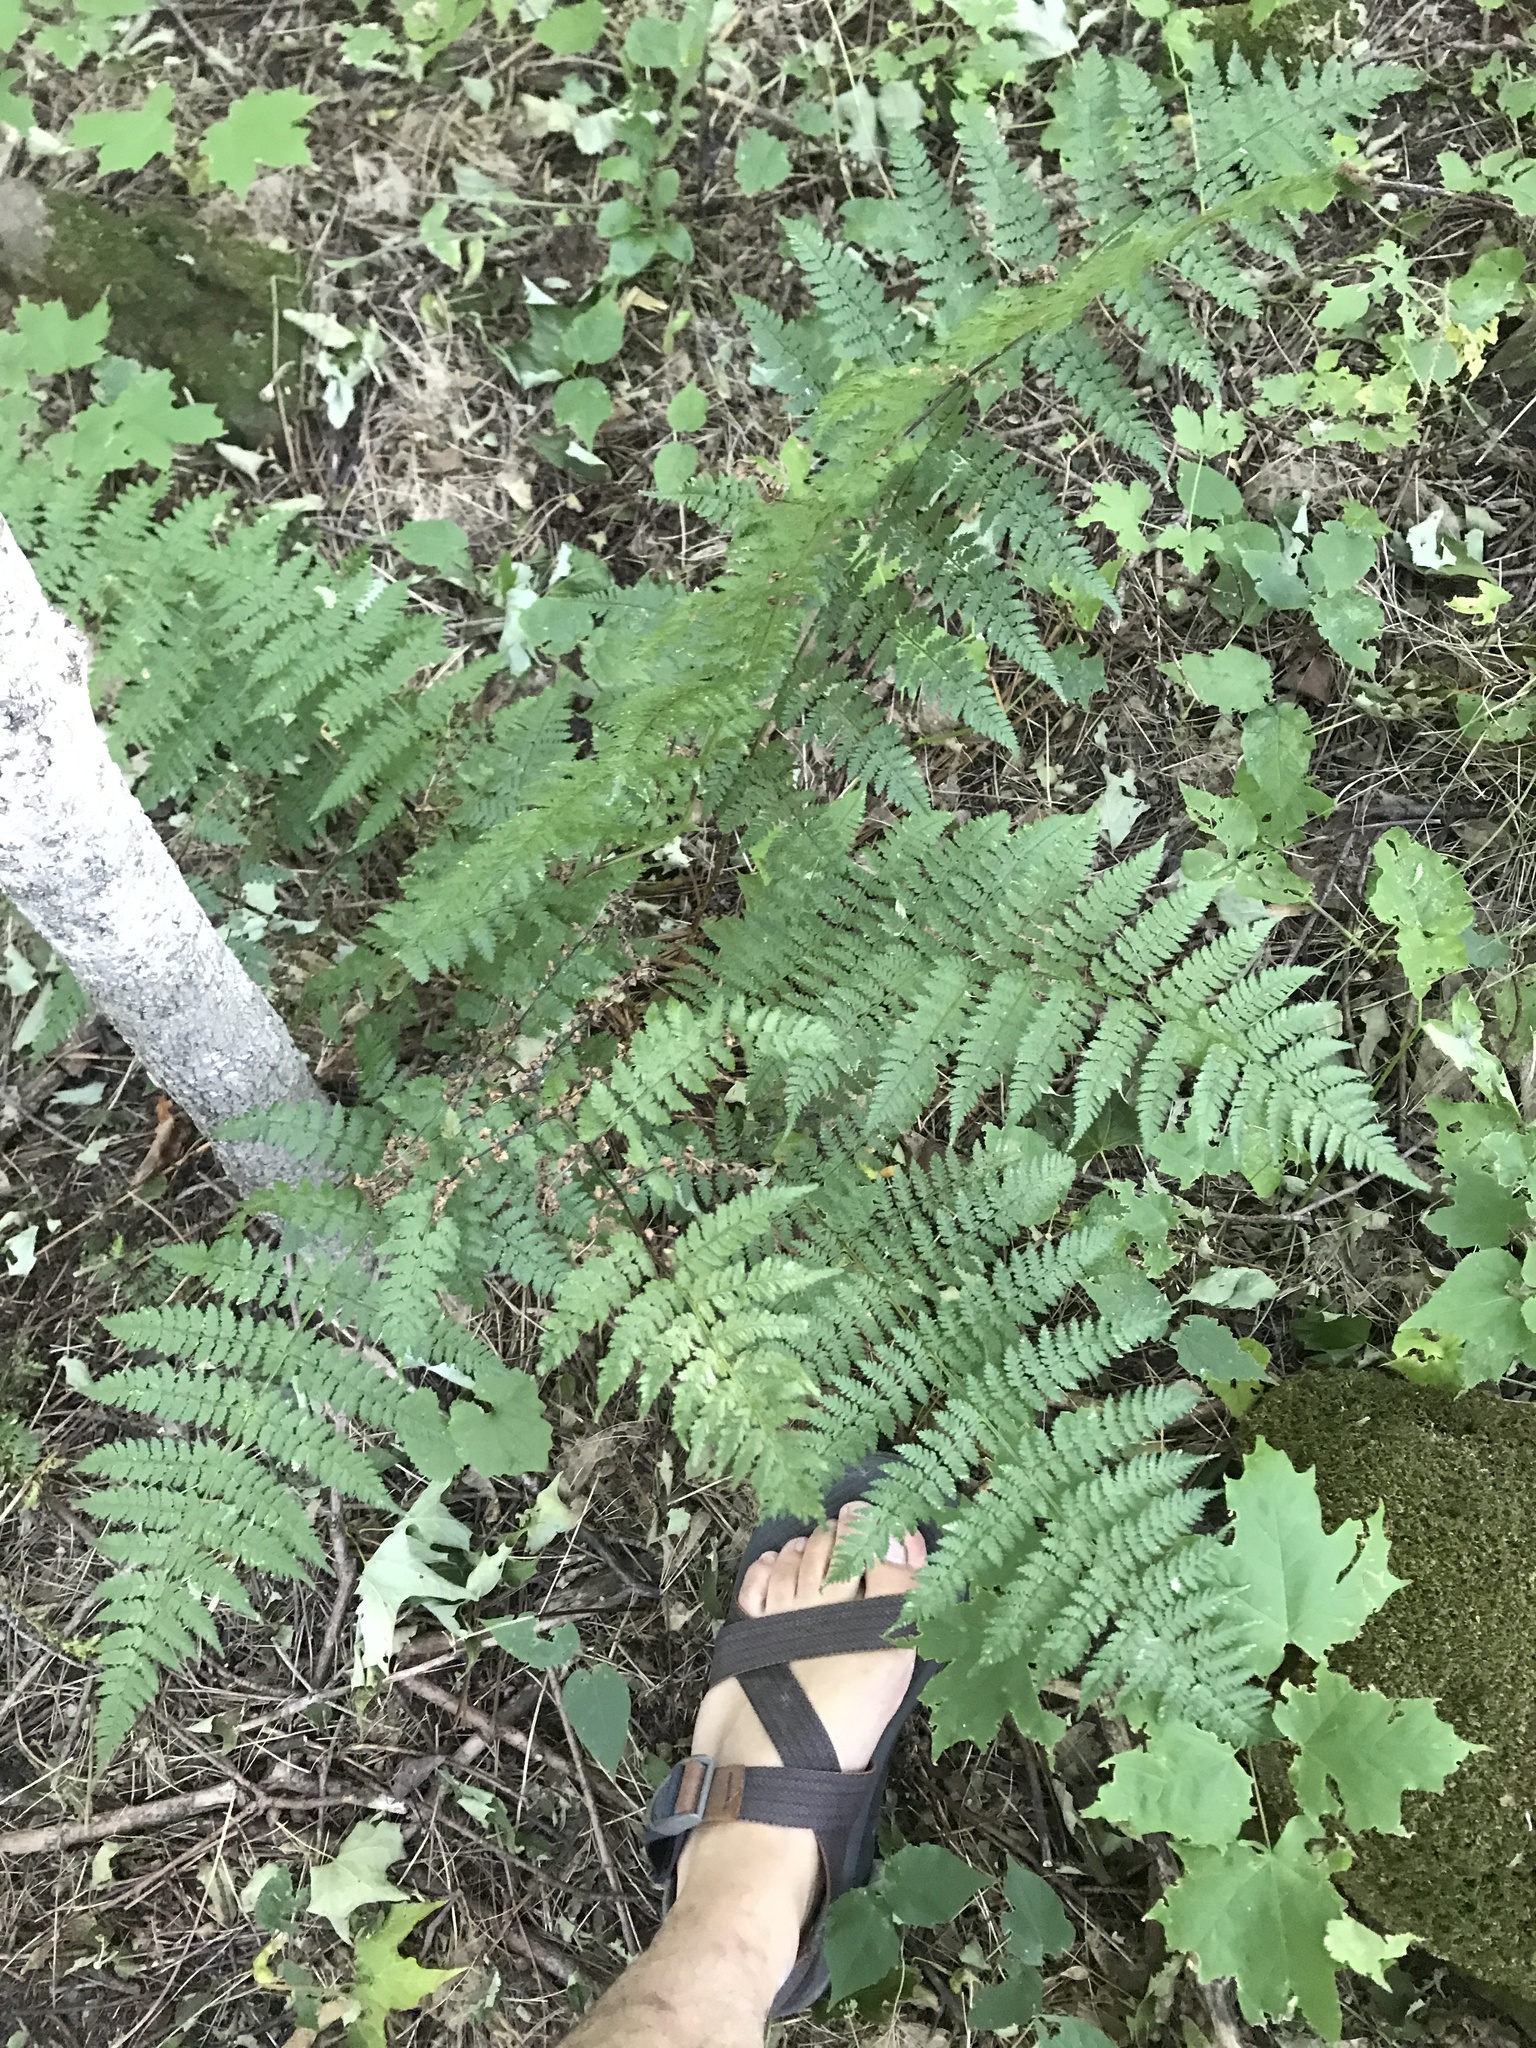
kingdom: Plantae
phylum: Tracheophyta
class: Polypodiopsida
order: Polypodiales
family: Dryopteridaceae
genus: Dryopteris
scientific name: Dryopteris intermedia
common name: Evergreen wood fern
